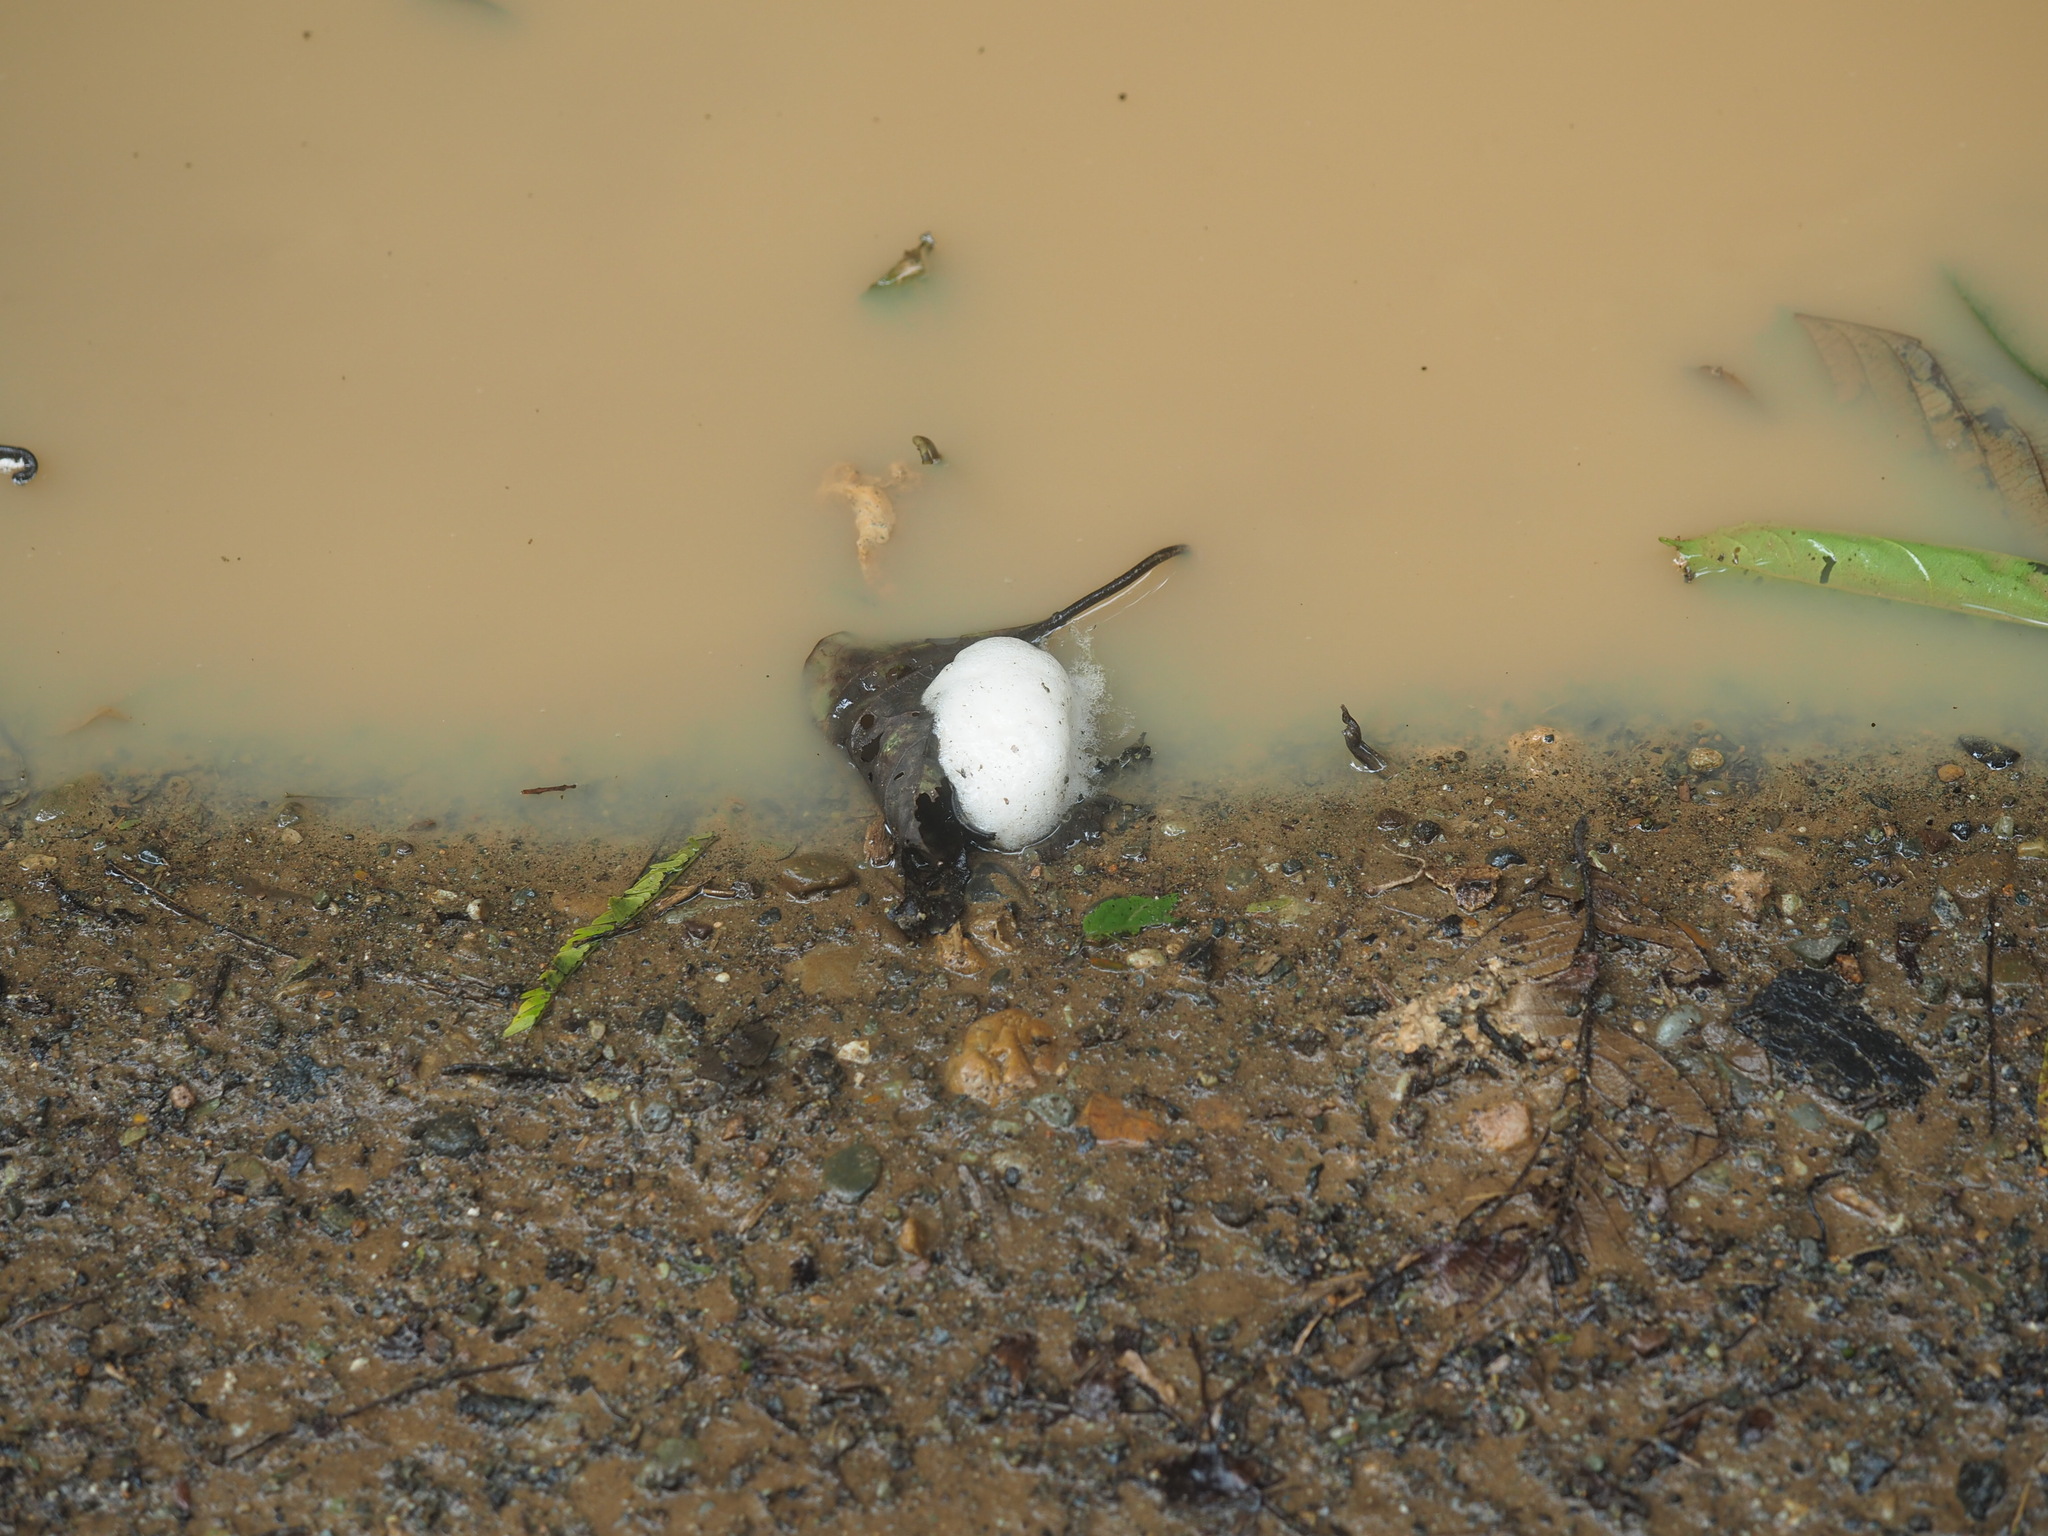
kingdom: Animalia
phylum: Chordata
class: Amphibia
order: Anura
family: Leptodactylidae
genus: Engystomops
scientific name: Engystomops pustulosus
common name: Tungara frog
